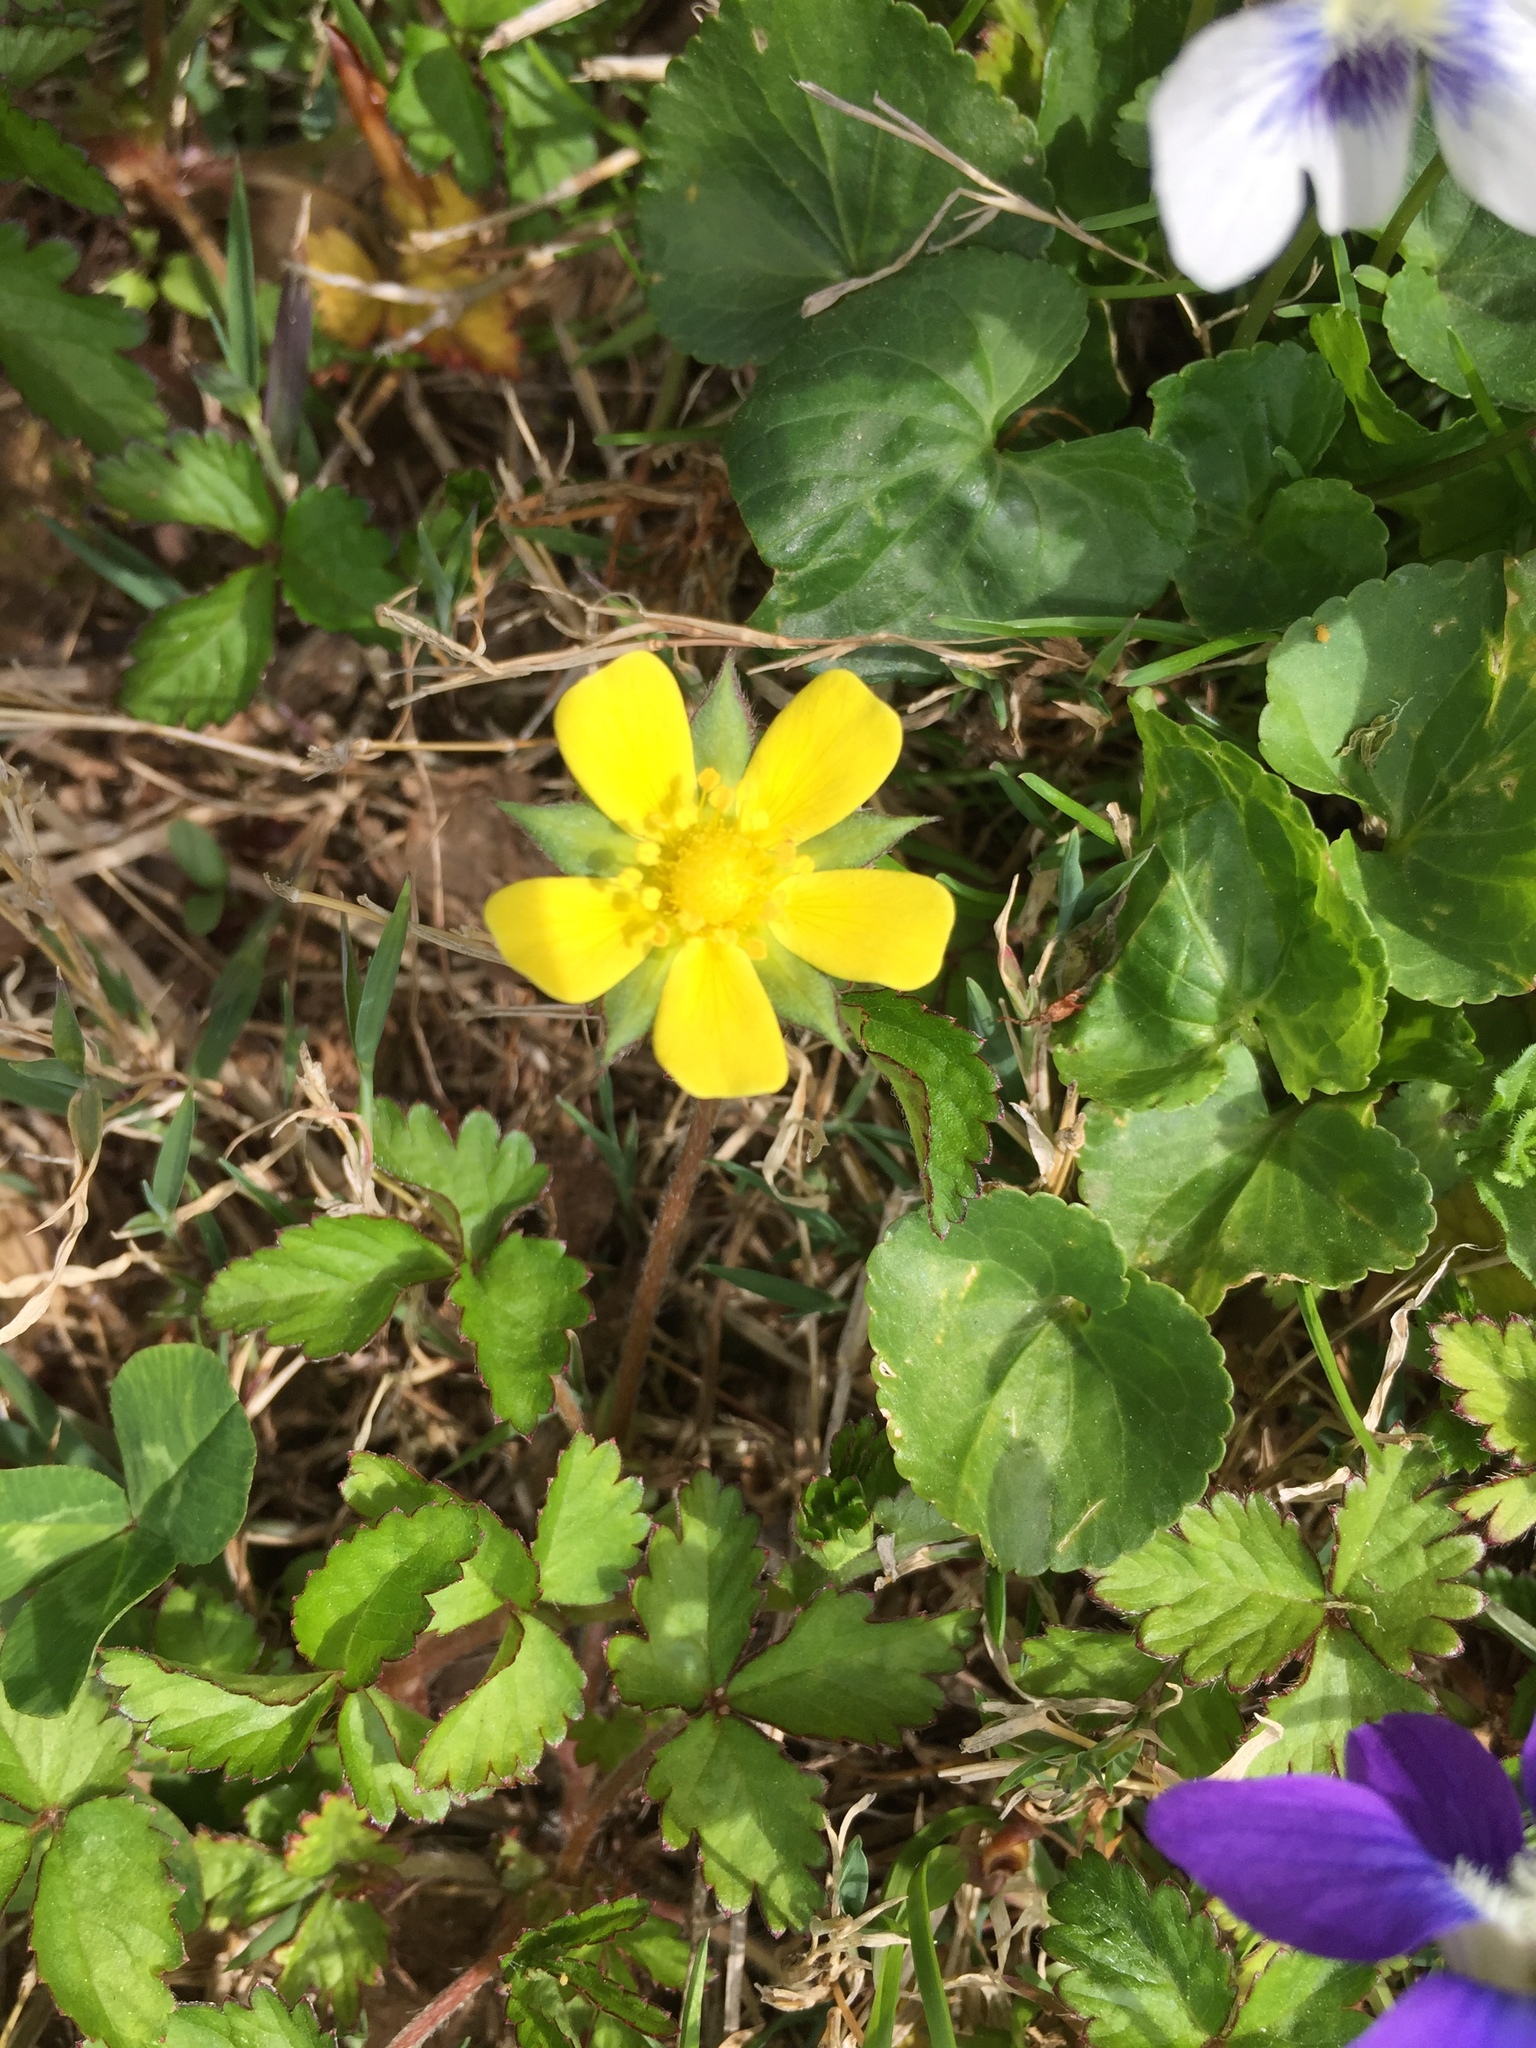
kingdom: Plantae
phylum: Tracheophyta
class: Magnoliopsida
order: Rosales
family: Rosaceae
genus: Potentilla
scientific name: Potentilla indica
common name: Yellow-flowered strawberry
